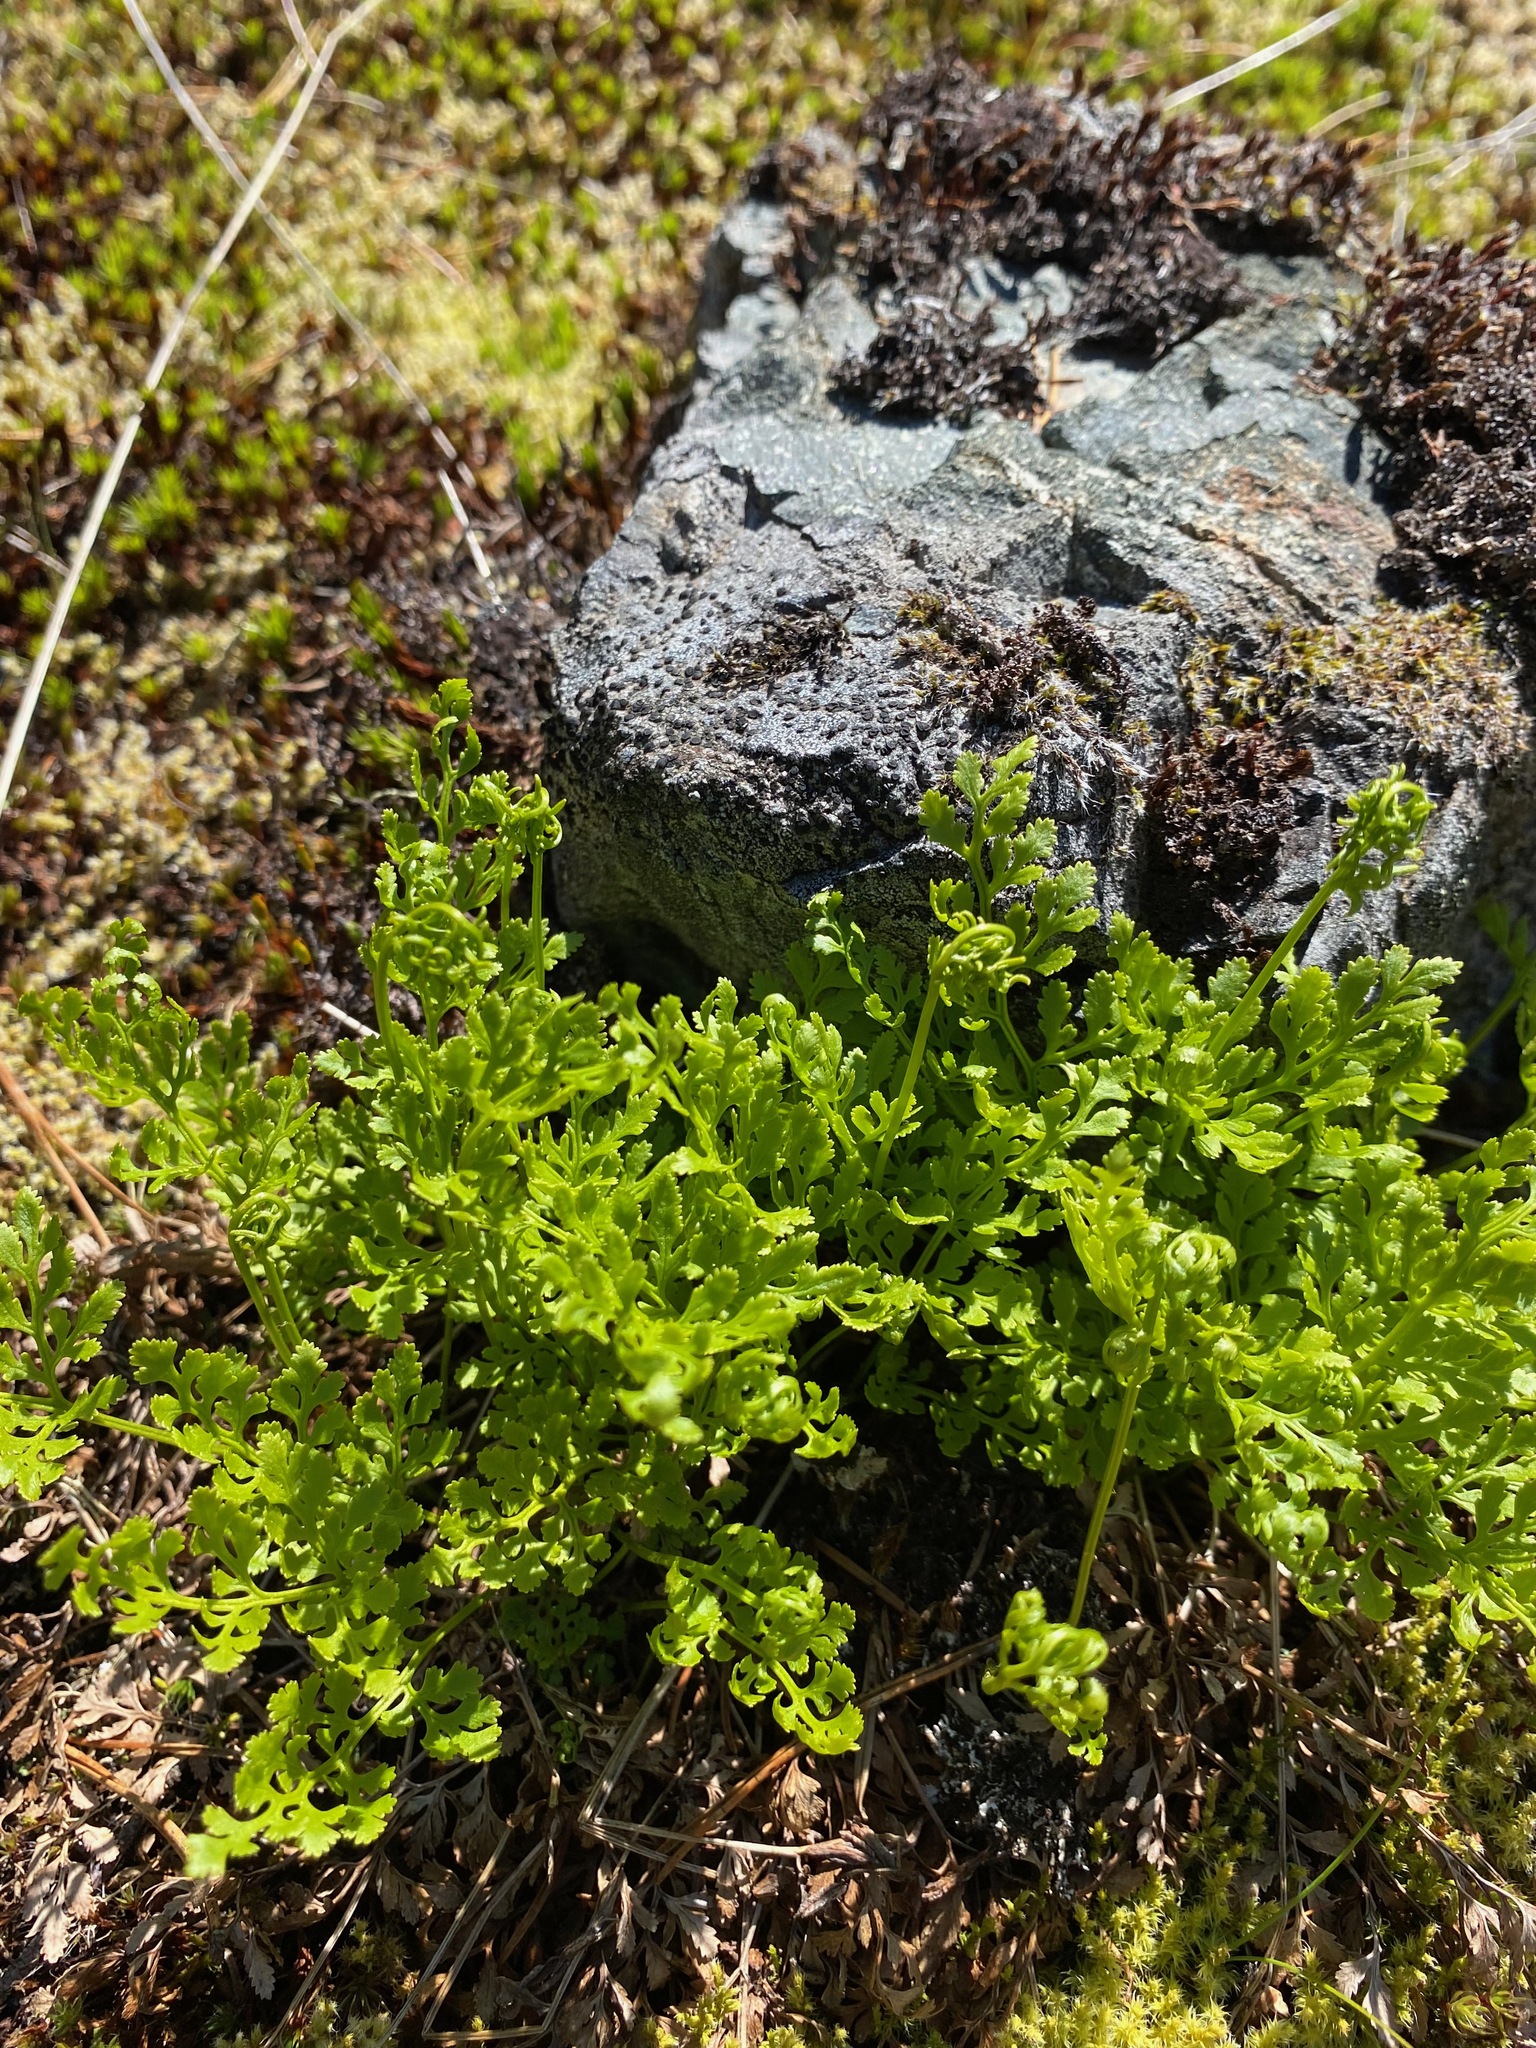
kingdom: Plantae
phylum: Tracheophyta
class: Polypodiopsida
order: Polypodiales
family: Pteridaceae
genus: Cryptogramma
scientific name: Cryptogramma acrostichoides
